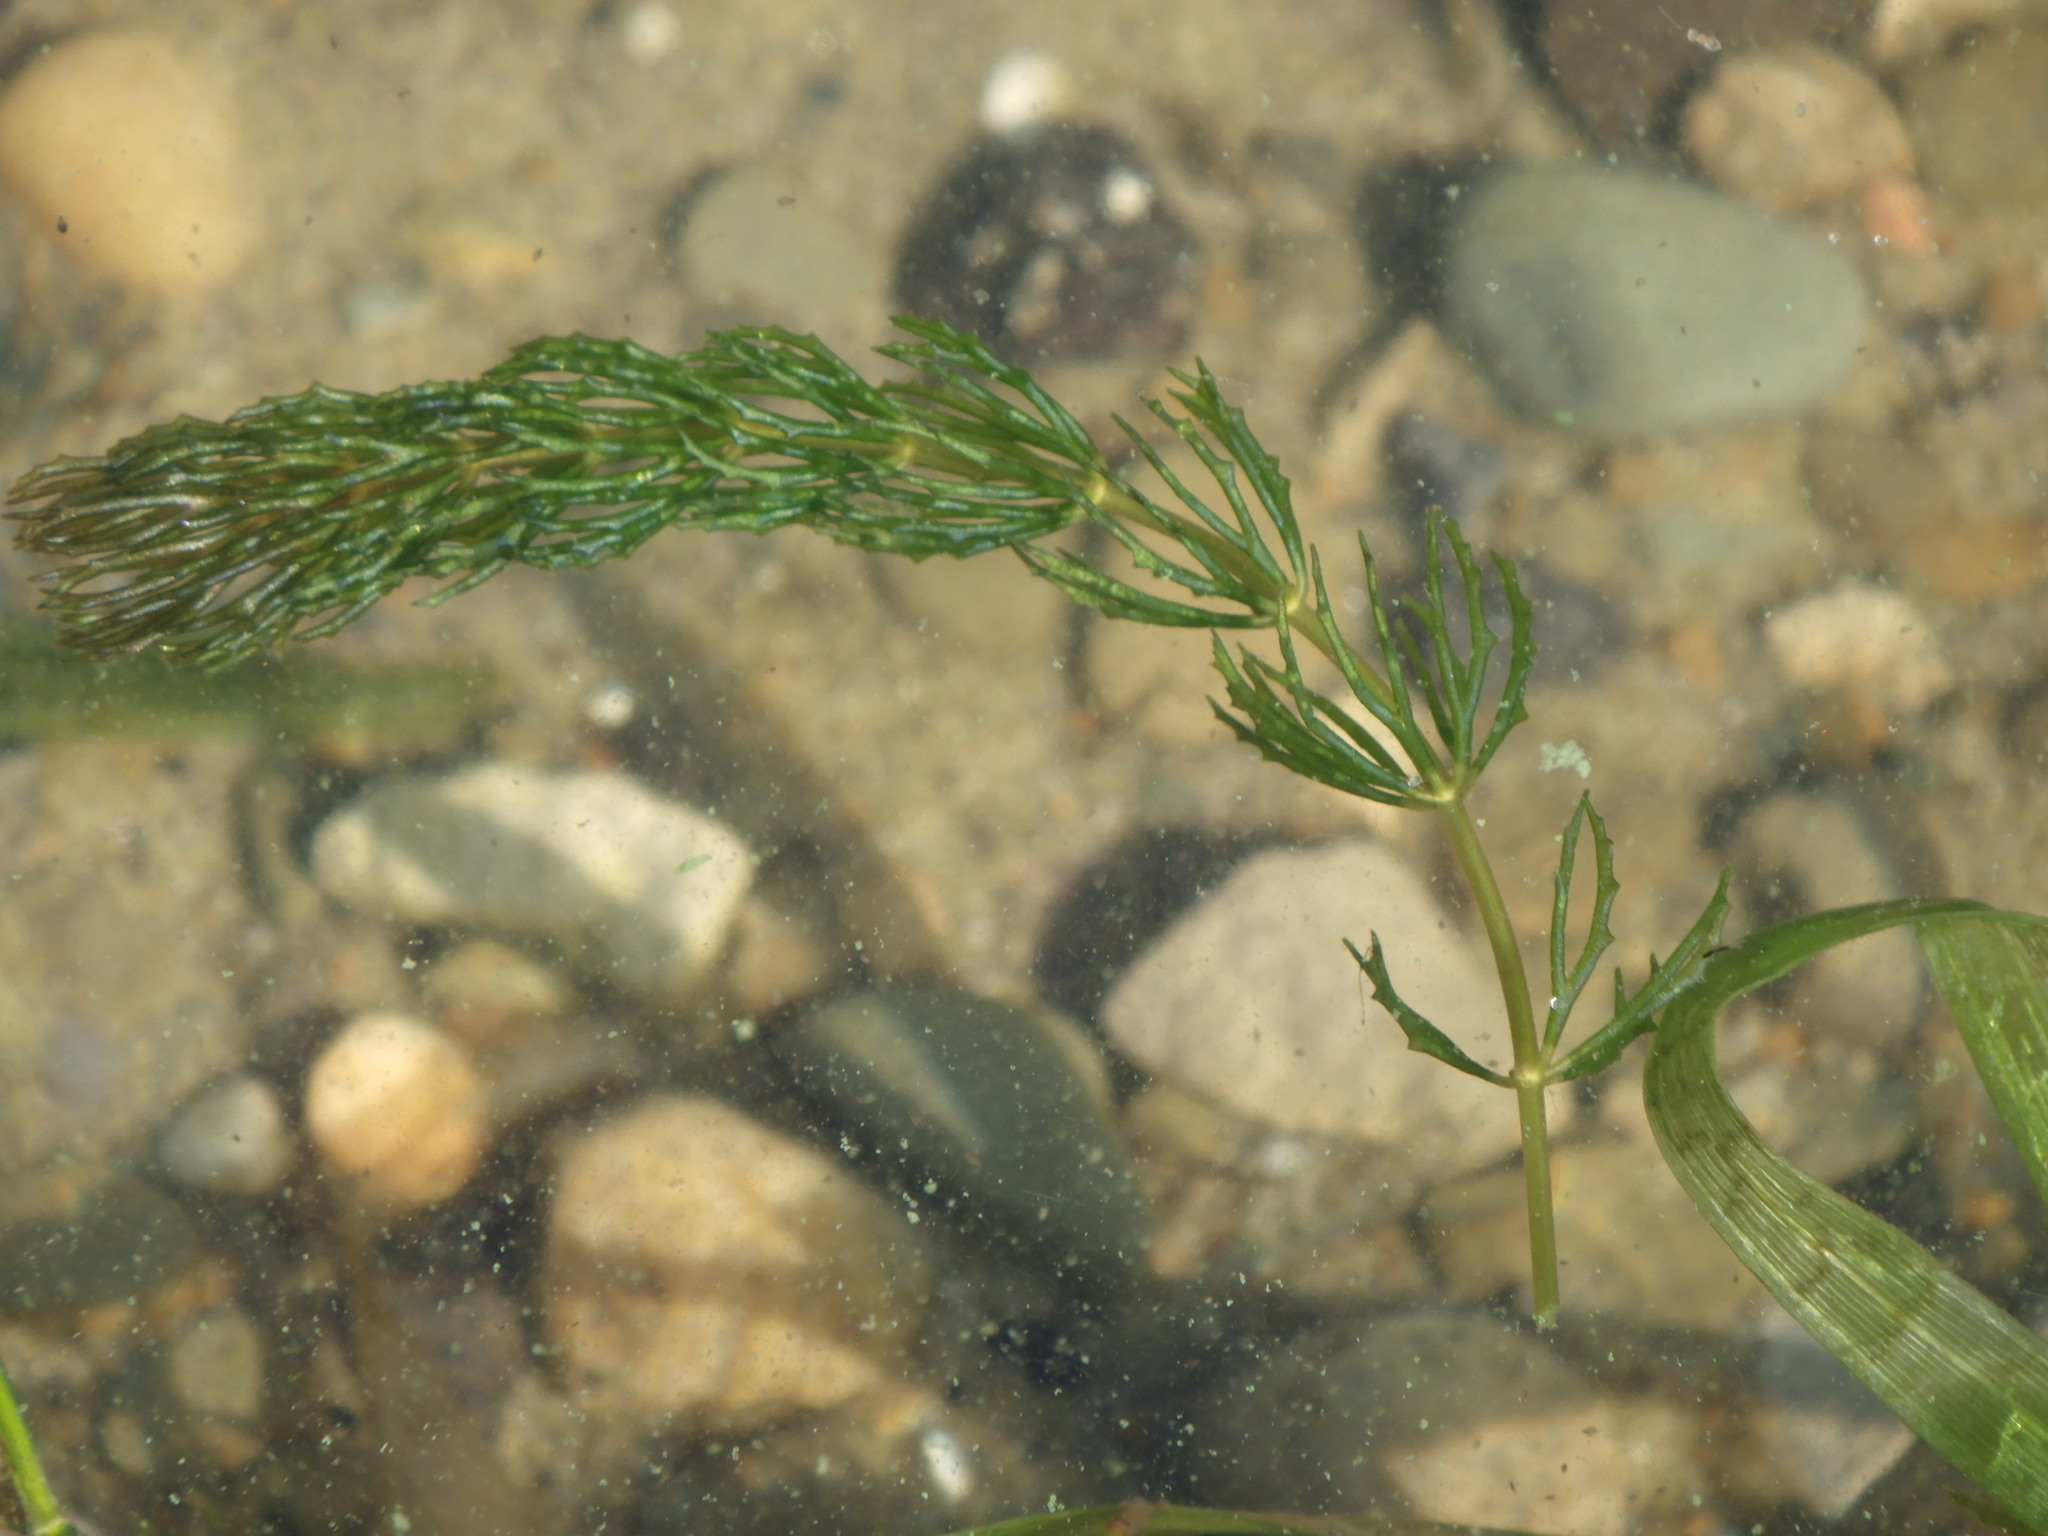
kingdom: Plantae
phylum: Tracheophyta
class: Magnoliopsida
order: Ceratophyllales
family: Ceratophyllaceae
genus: Ceratophyllum
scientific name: Ceratophyllum demersum
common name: Rigid hornwort
